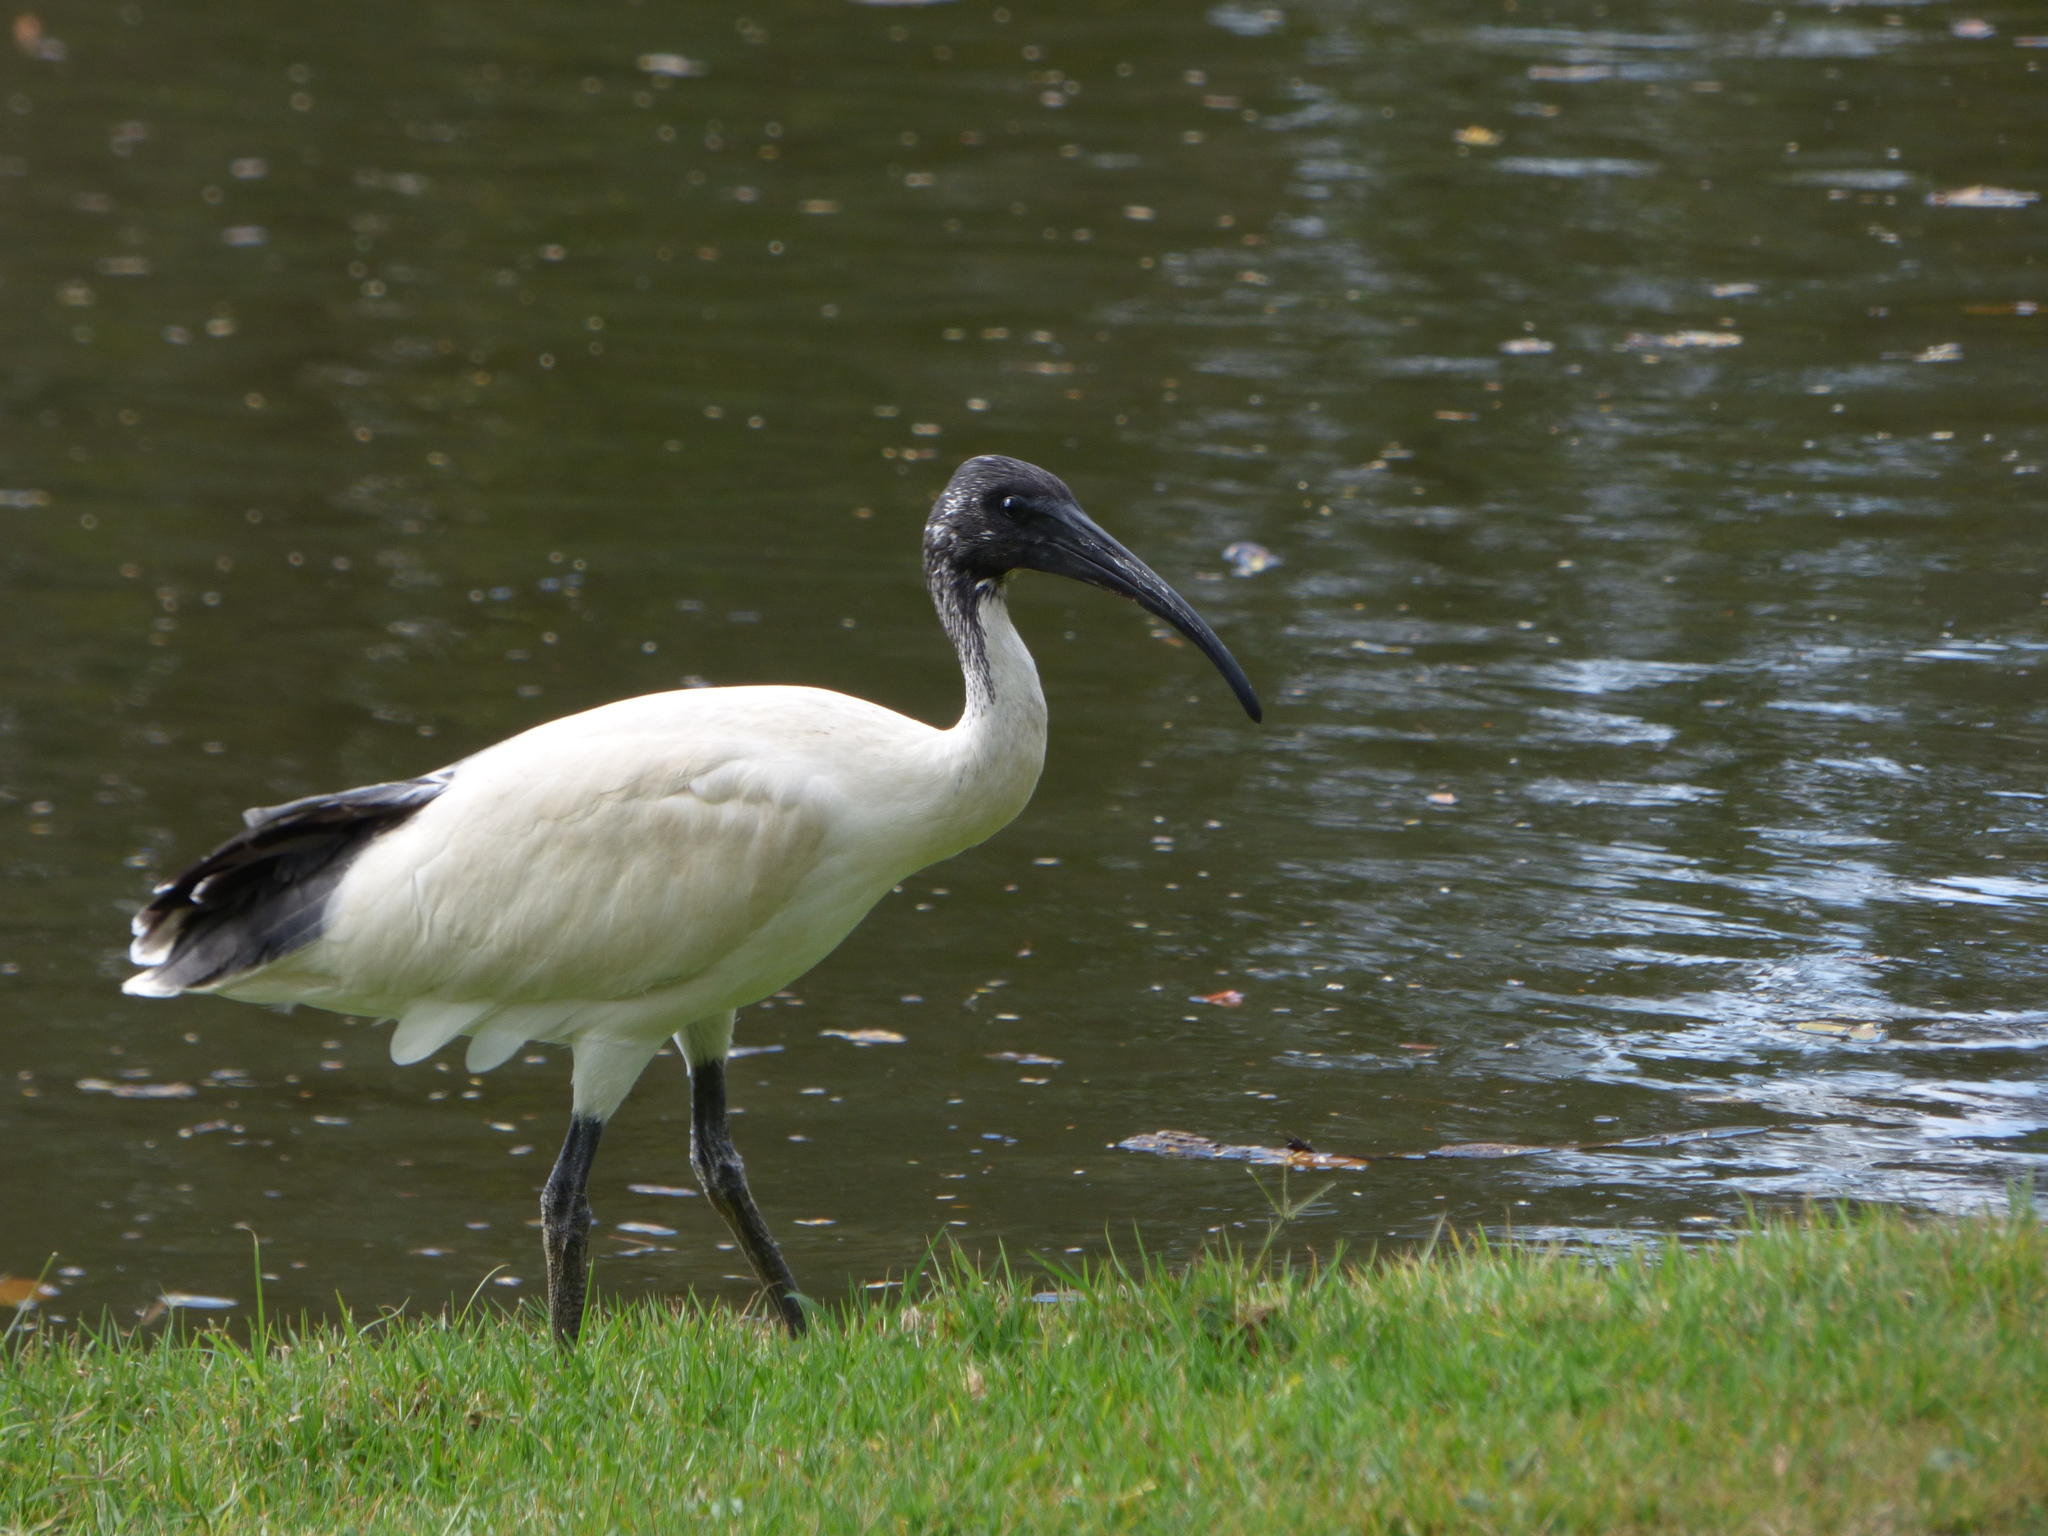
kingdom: Animalia
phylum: Chordata
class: Aves
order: Pelecaniformes
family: Threskiornithidae
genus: Threskiornis
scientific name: Threskiornis molucca
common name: Australian white ibis
